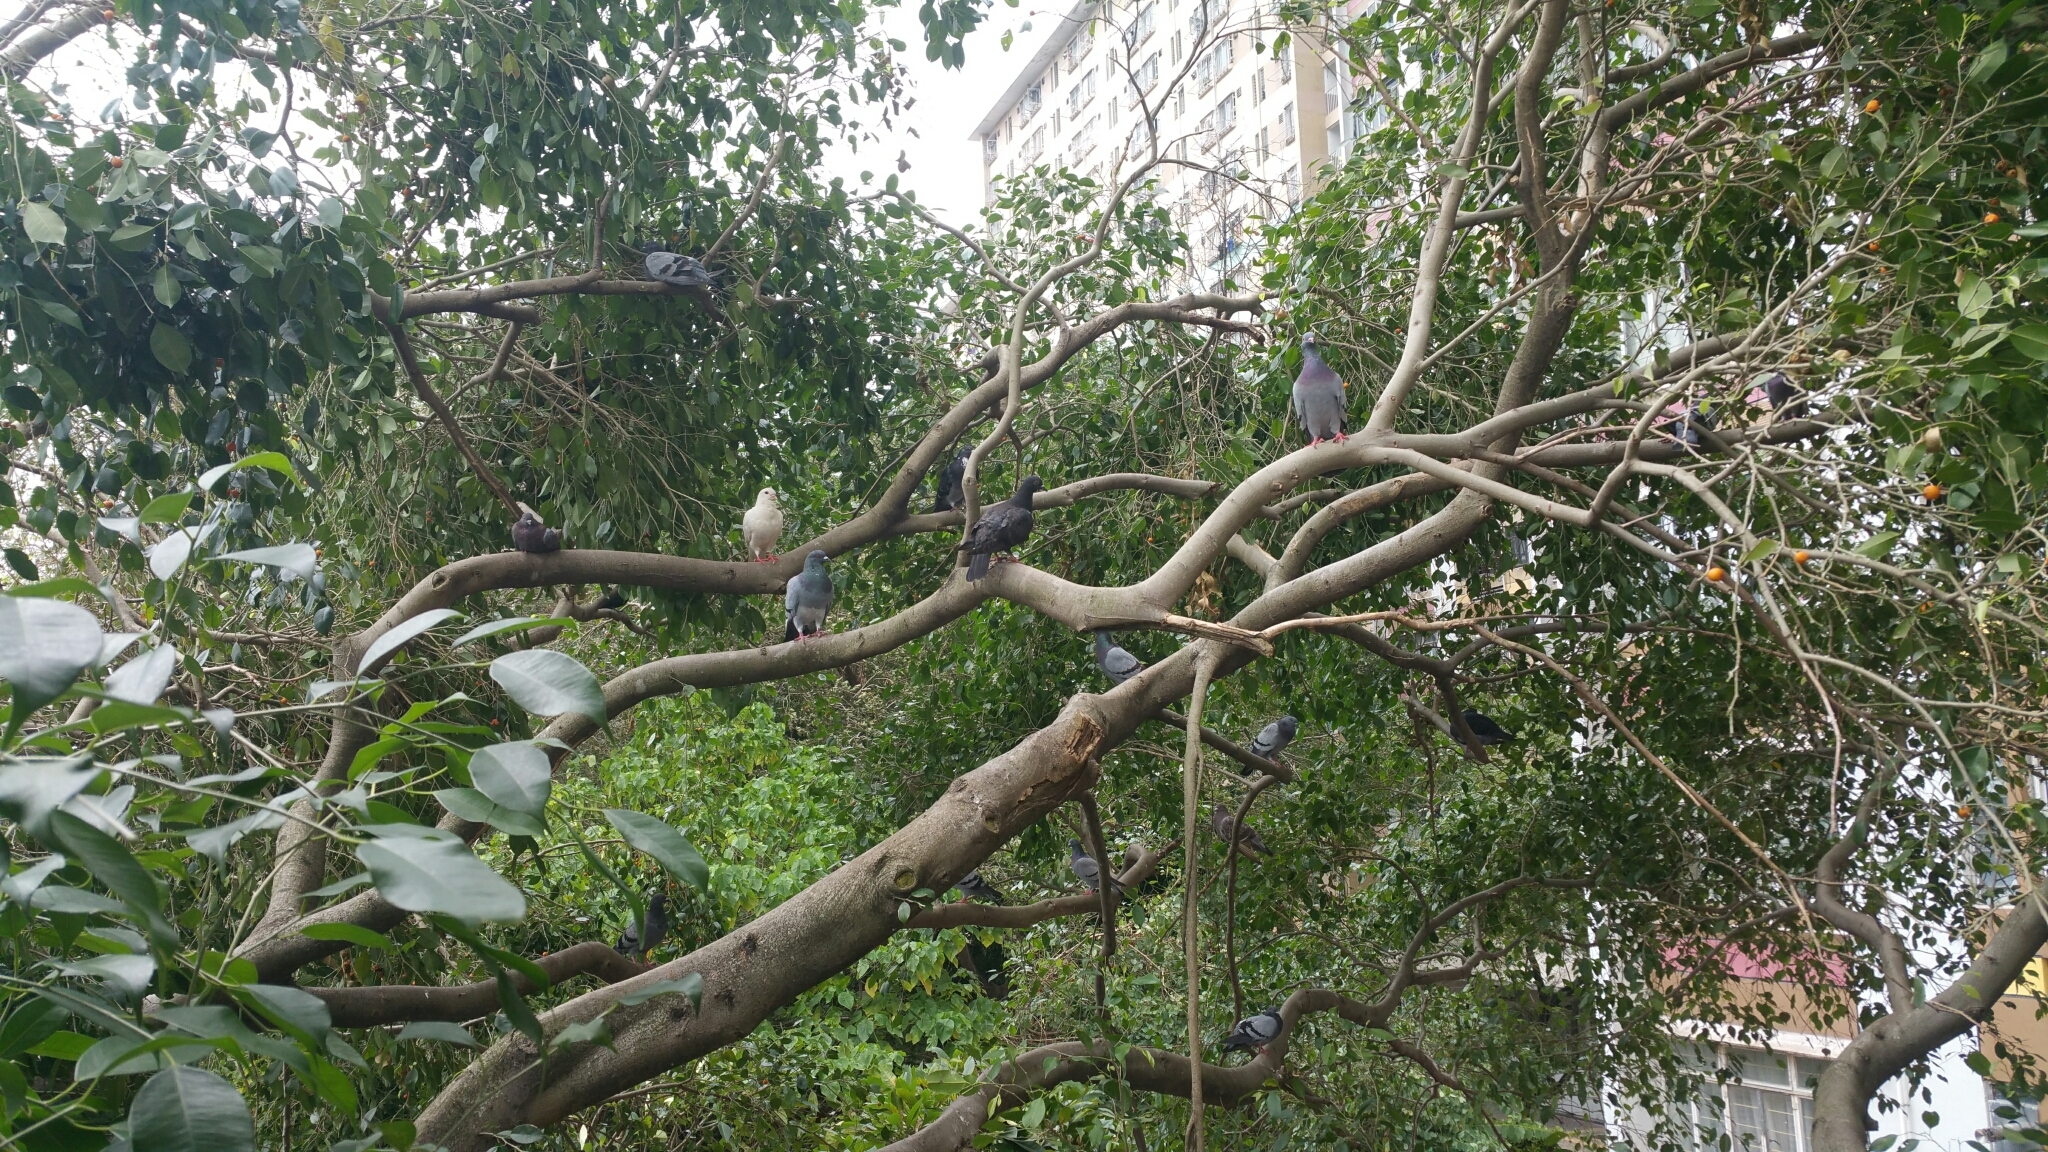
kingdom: Animalia
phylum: Chordata
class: Aves
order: Columbiformes
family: Columbidae
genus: Columba
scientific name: Columba livia
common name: Rock pigeon
